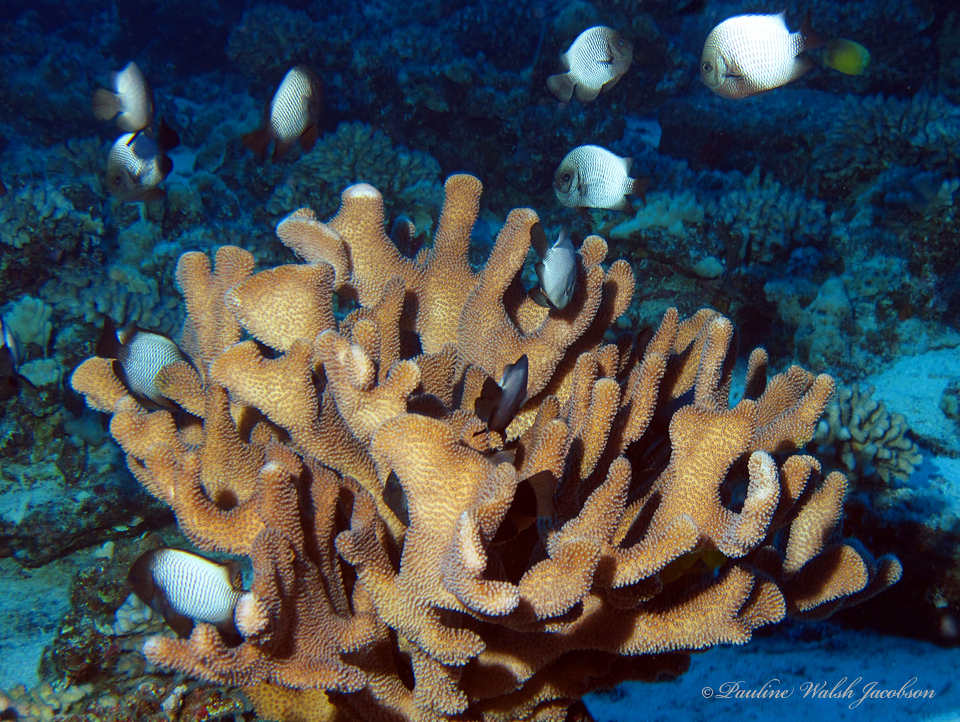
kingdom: Animalia
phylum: Chordata
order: Perciformes
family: Pomacentridae
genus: Dascyllus
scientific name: Dascyllus albisella
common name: Hawaiian dascyllus
